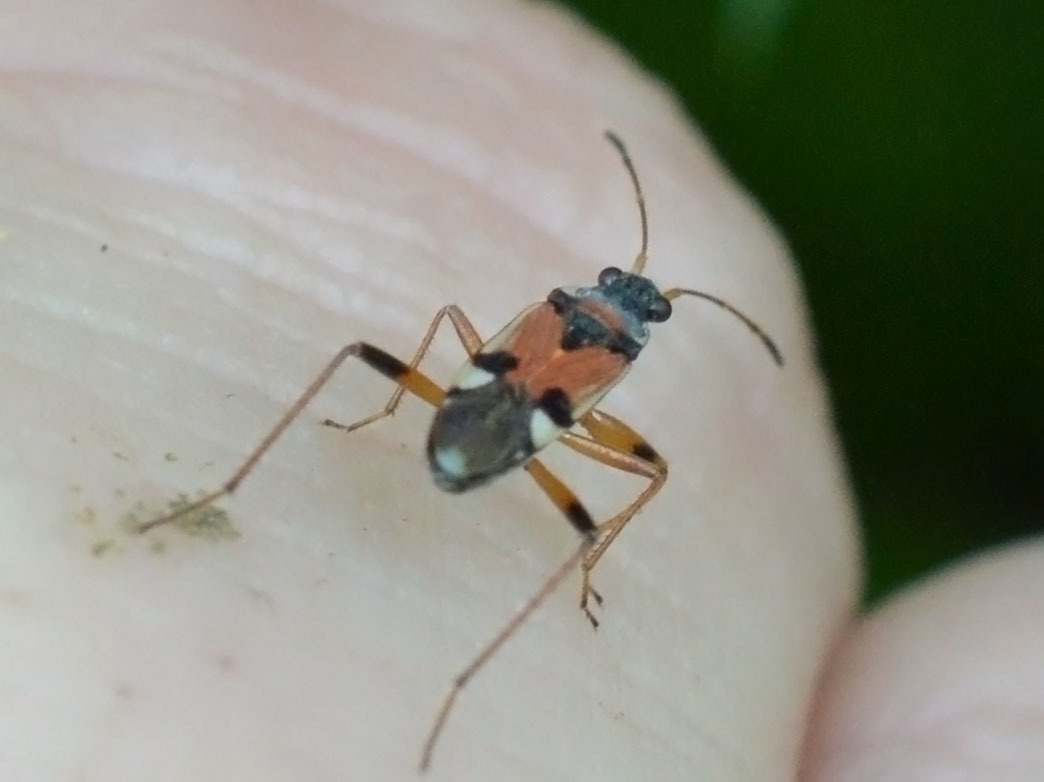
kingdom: Animalia
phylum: Arthropoda
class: Insecta
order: Hemiptera
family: Rhyparochromidae
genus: Beosus
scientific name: Beosus quadripunctatus
